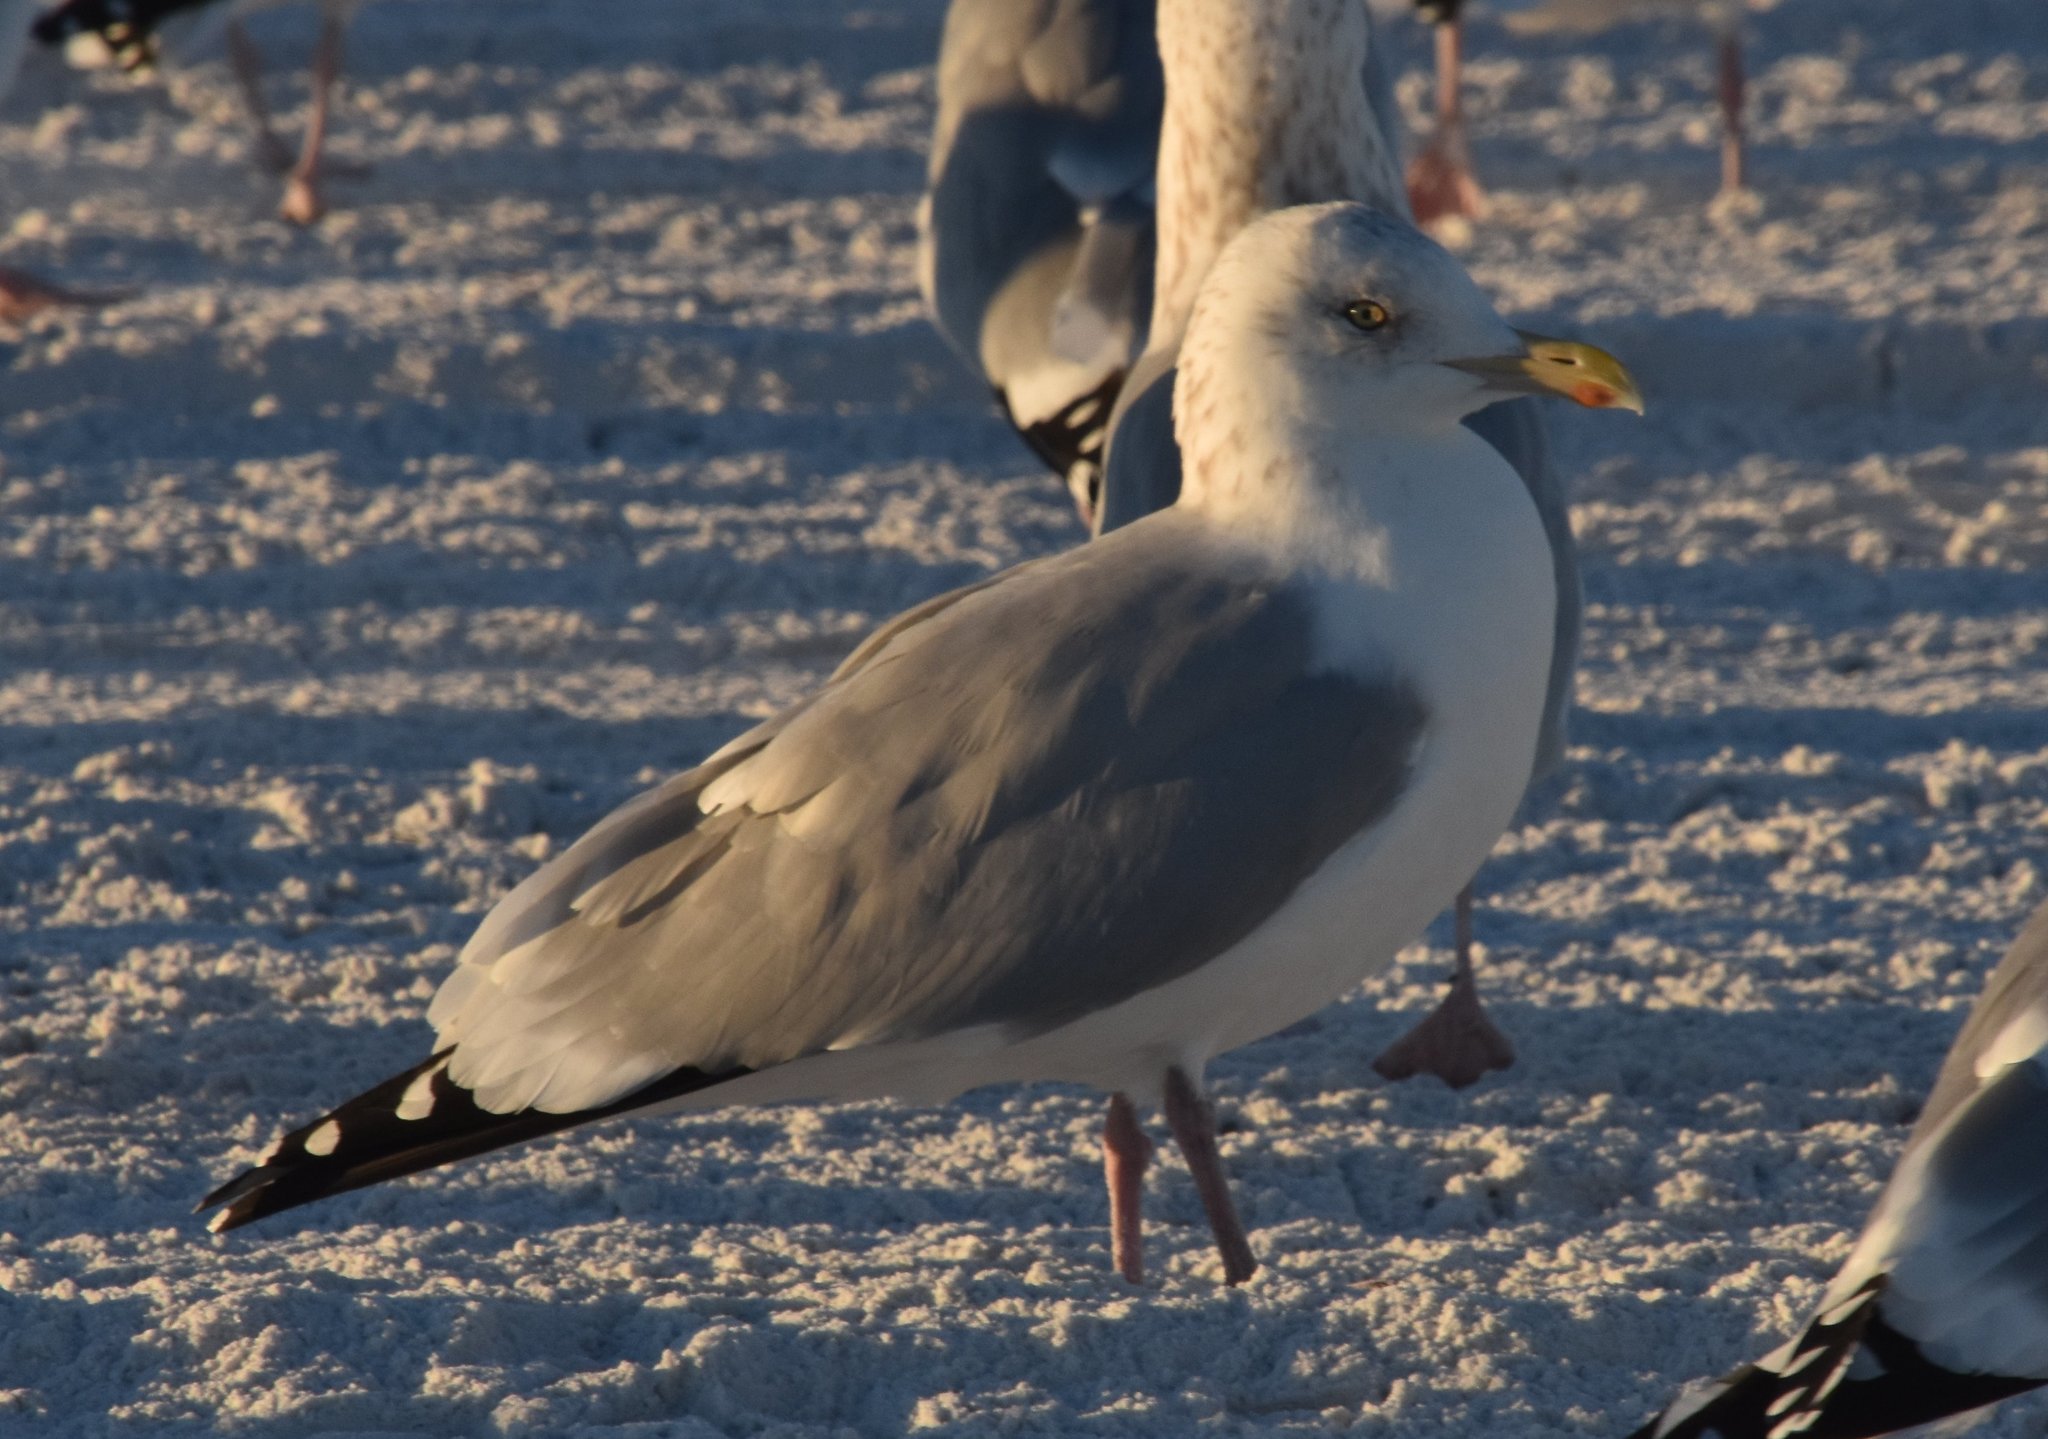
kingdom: Animalia
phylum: Chordata
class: Aves
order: Charadriiformes
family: Laridae
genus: Larus
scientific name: Larus argentatus
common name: Herring gull
